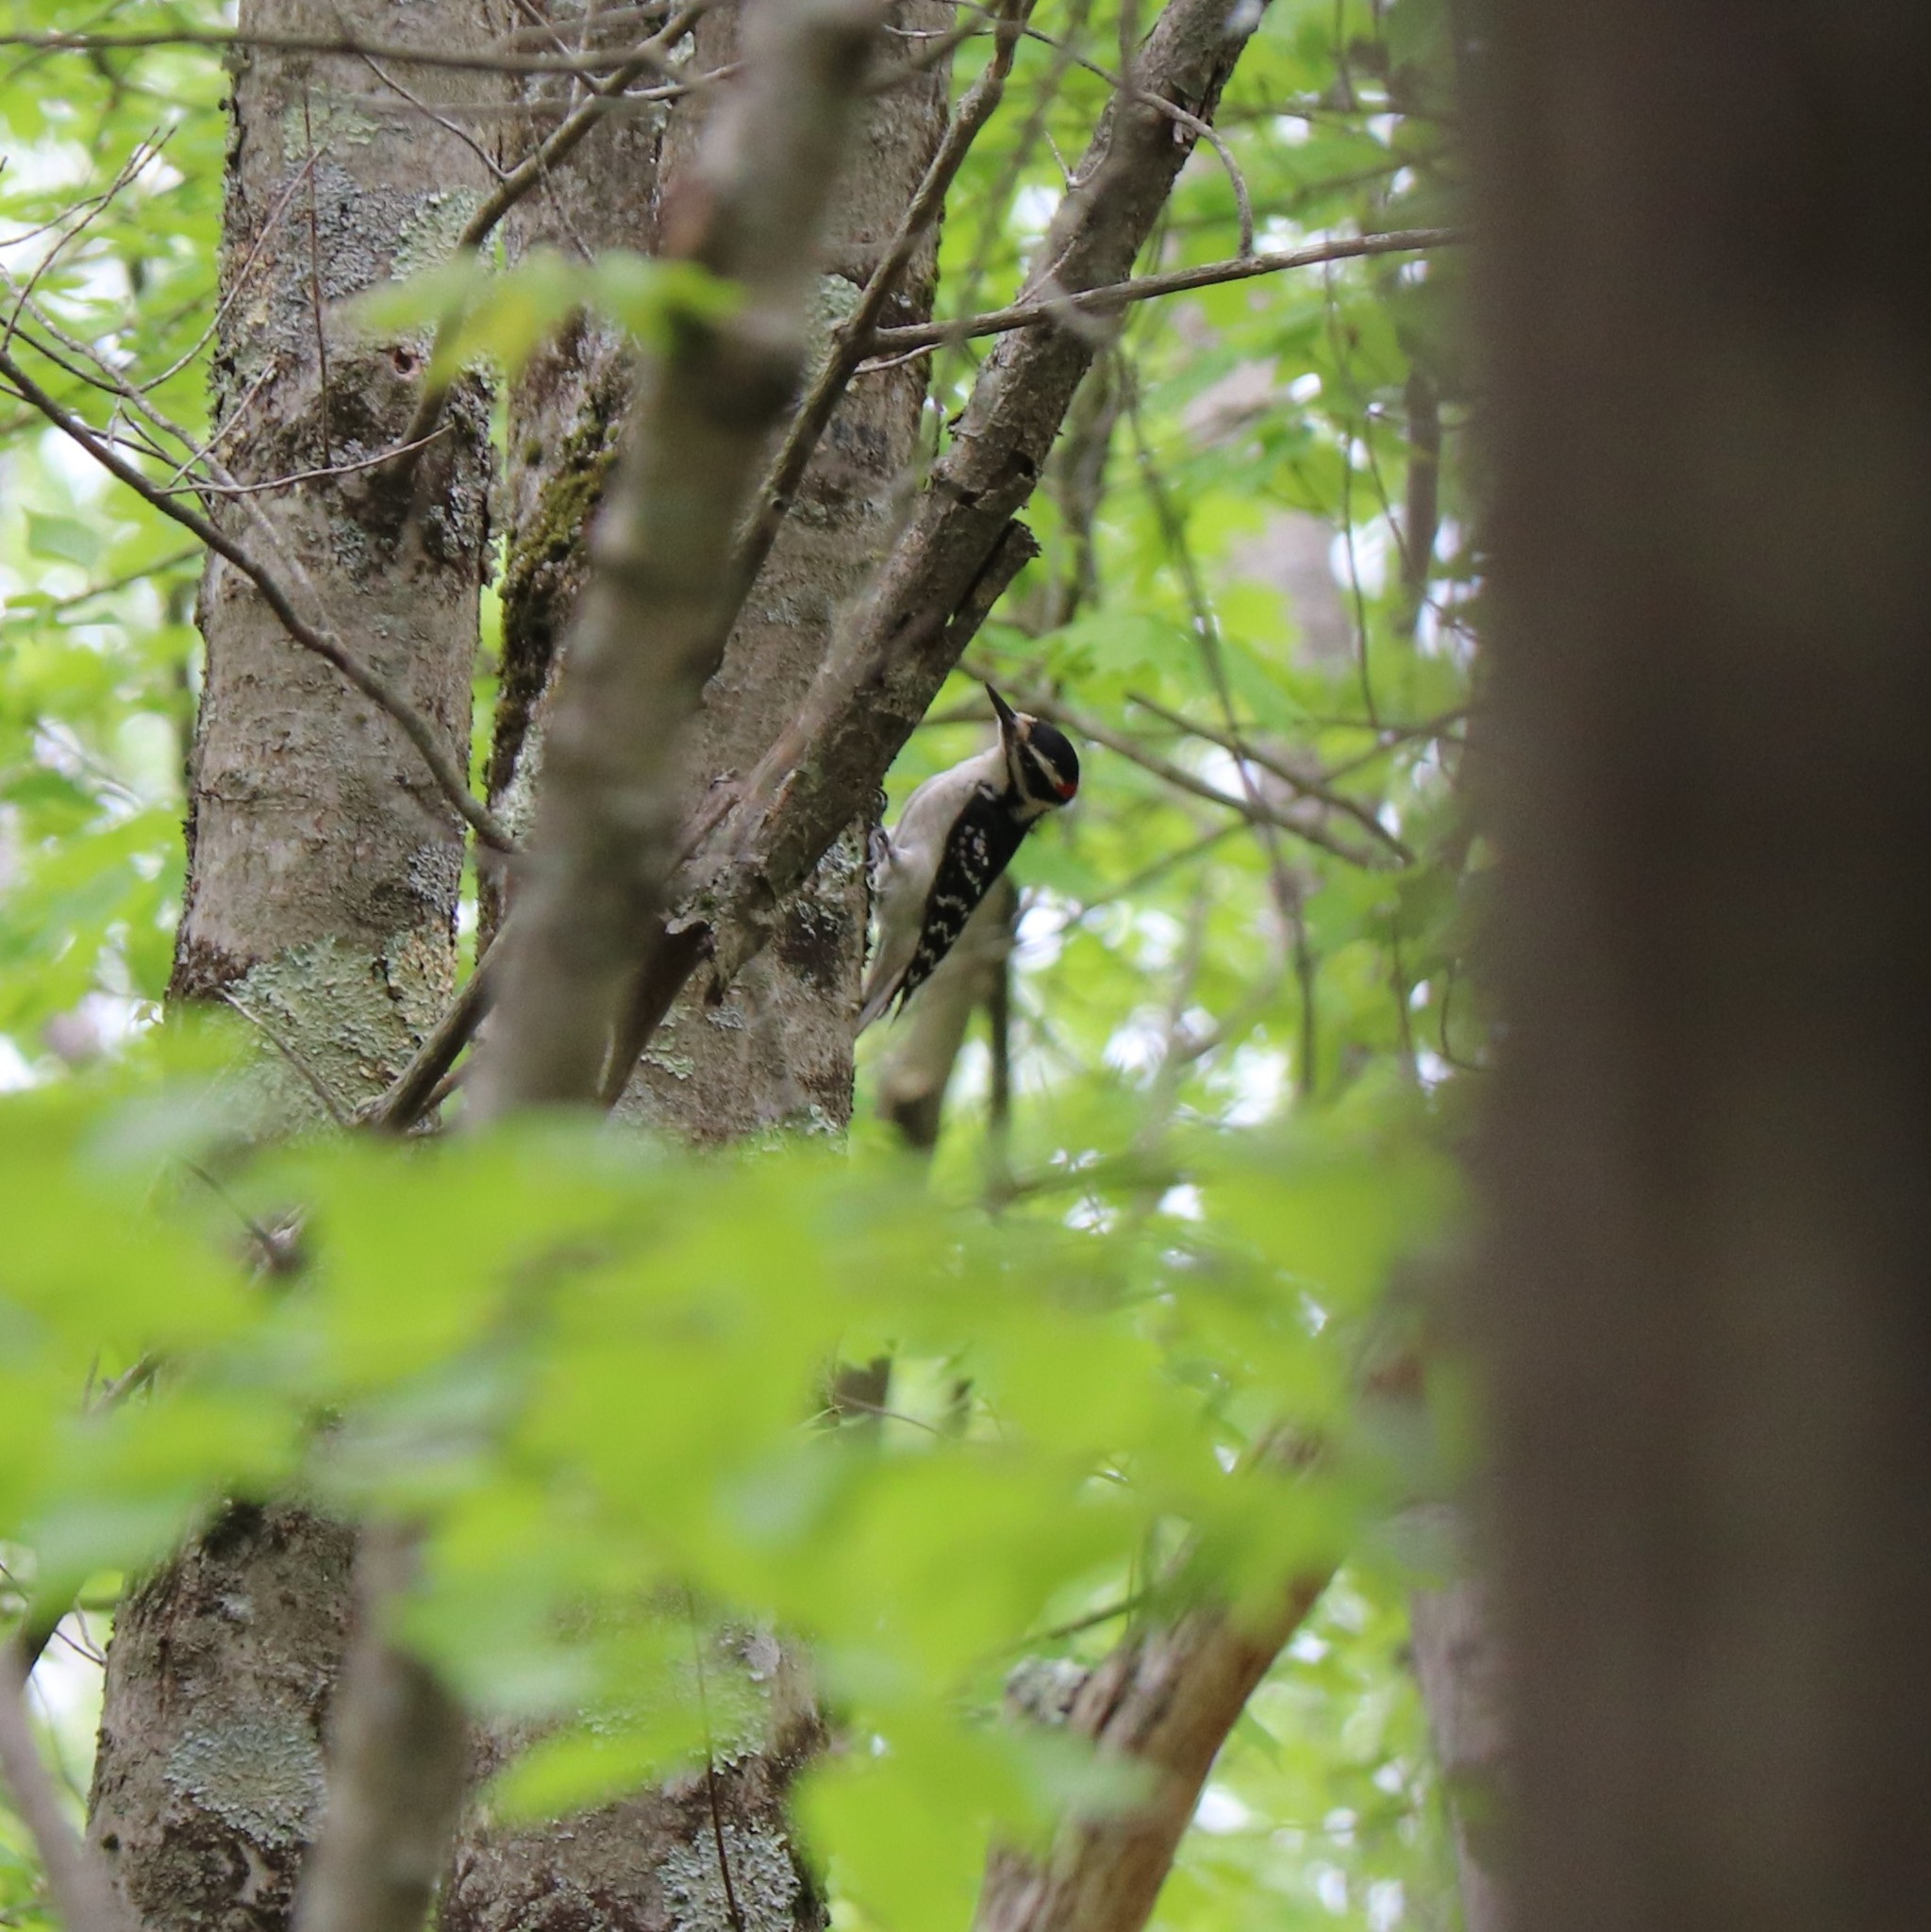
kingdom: Animalia
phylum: Chordata
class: Aves
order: Piciformes
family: Picidae
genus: Leuconotopicus
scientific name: Leuconotopicus villosus
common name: Hairy woodpecker
